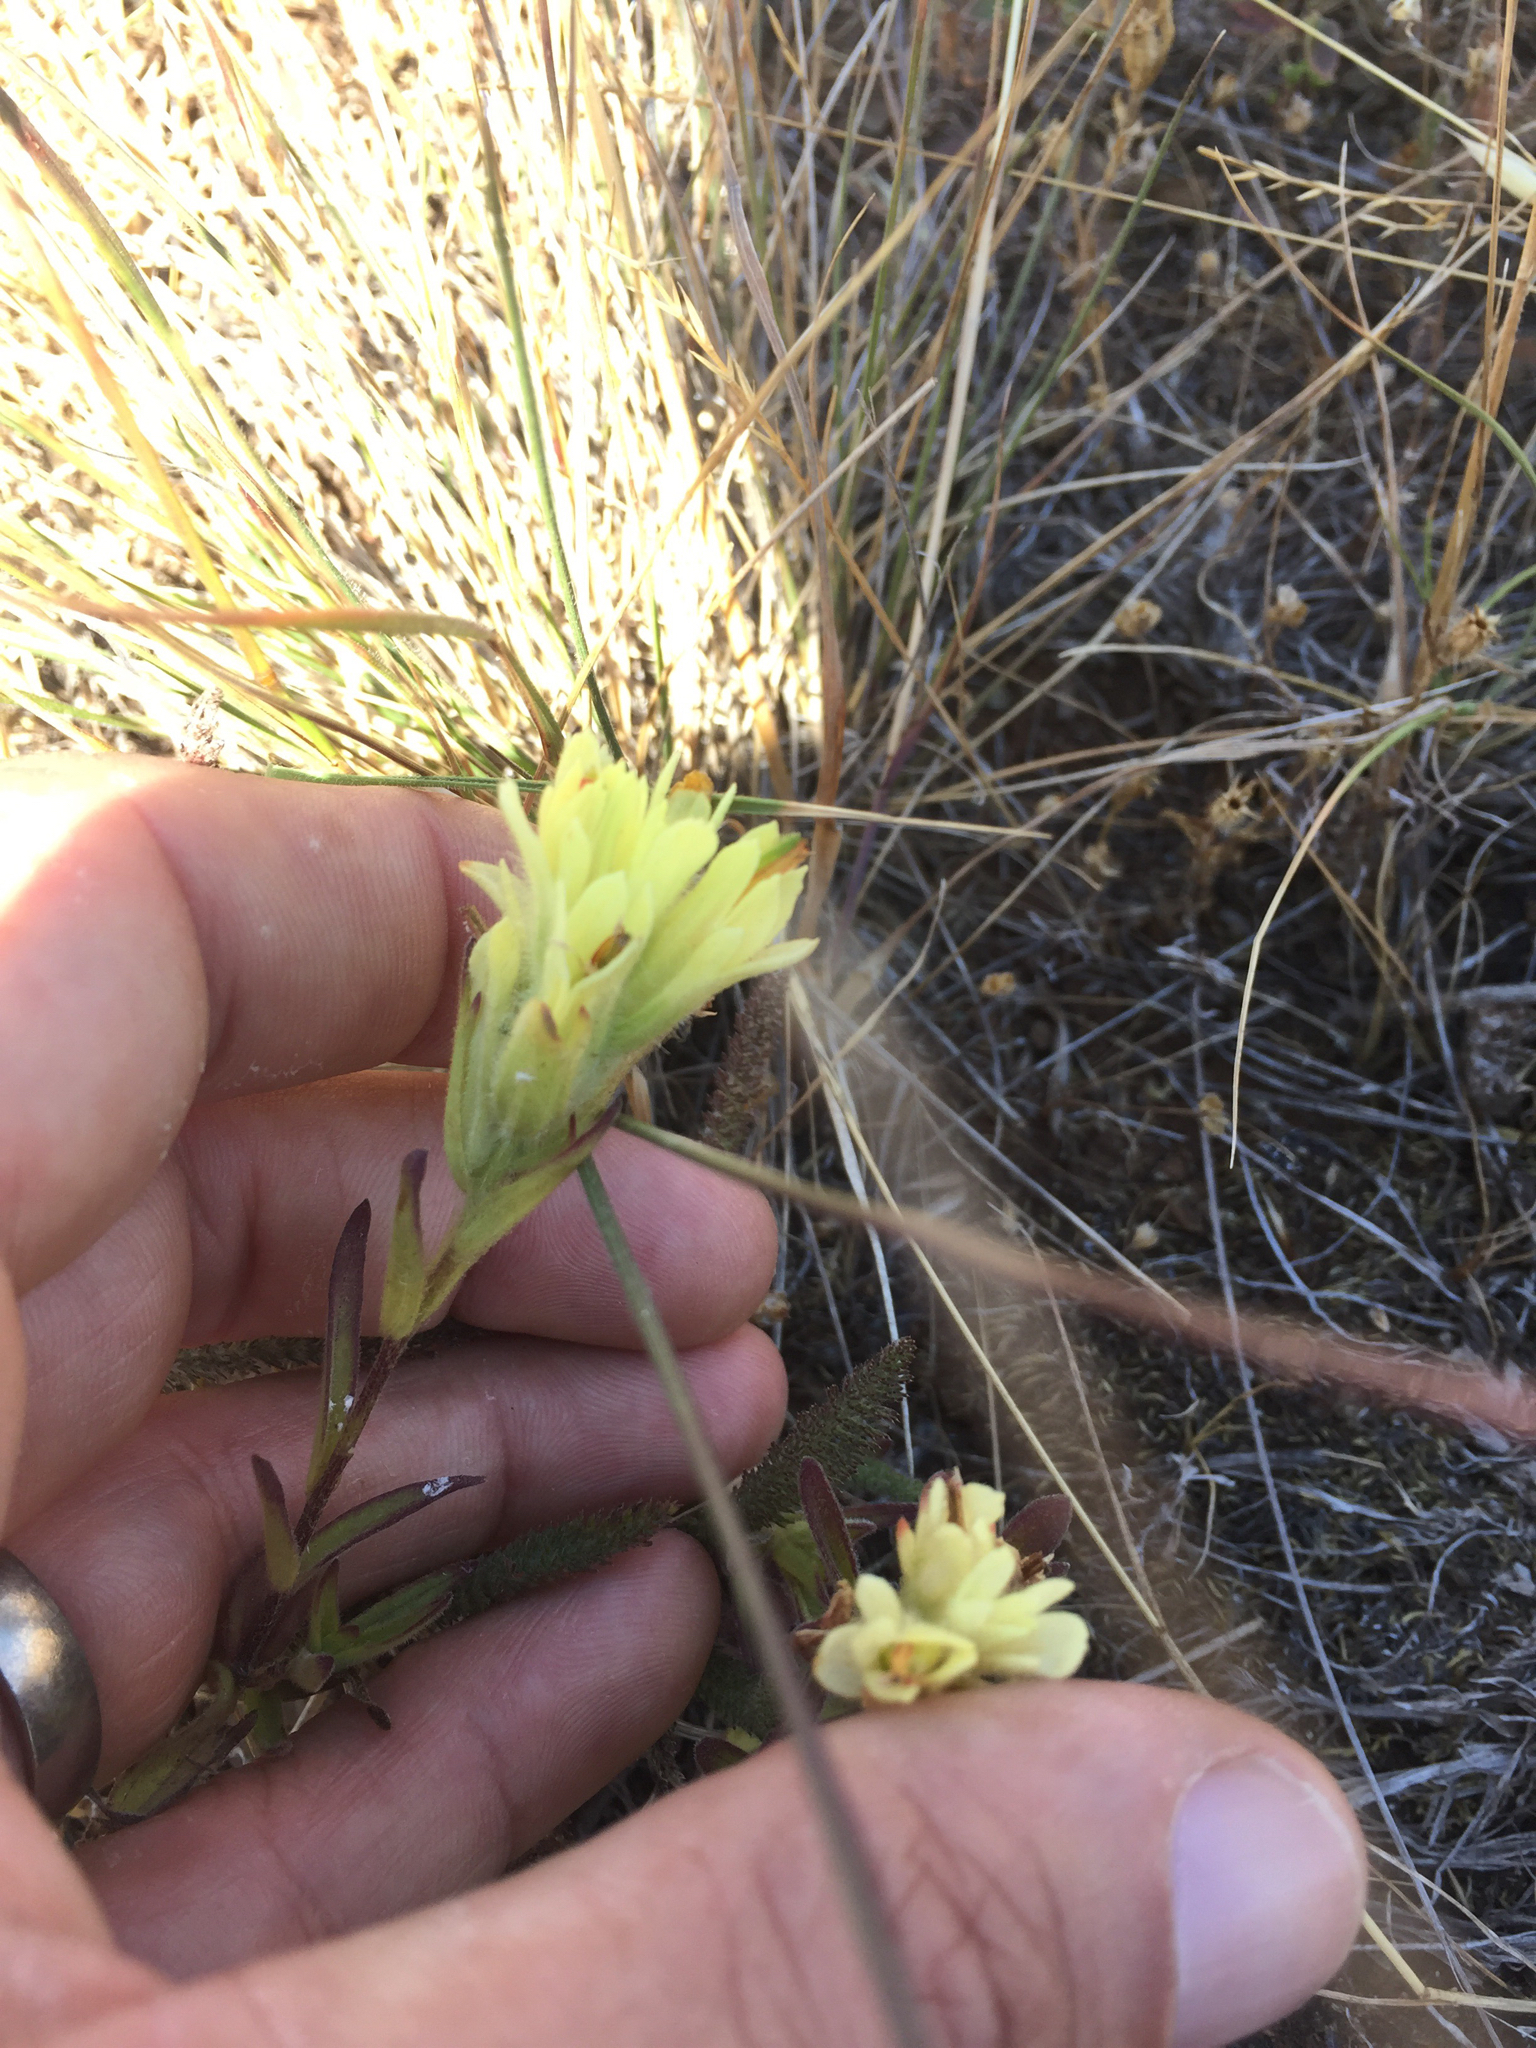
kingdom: Plantae
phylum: Tracheophyta
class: Magnoliopsida
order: Lamiales
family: Orobanchaceae
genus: Castilleja
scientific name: Castilleja affinis
